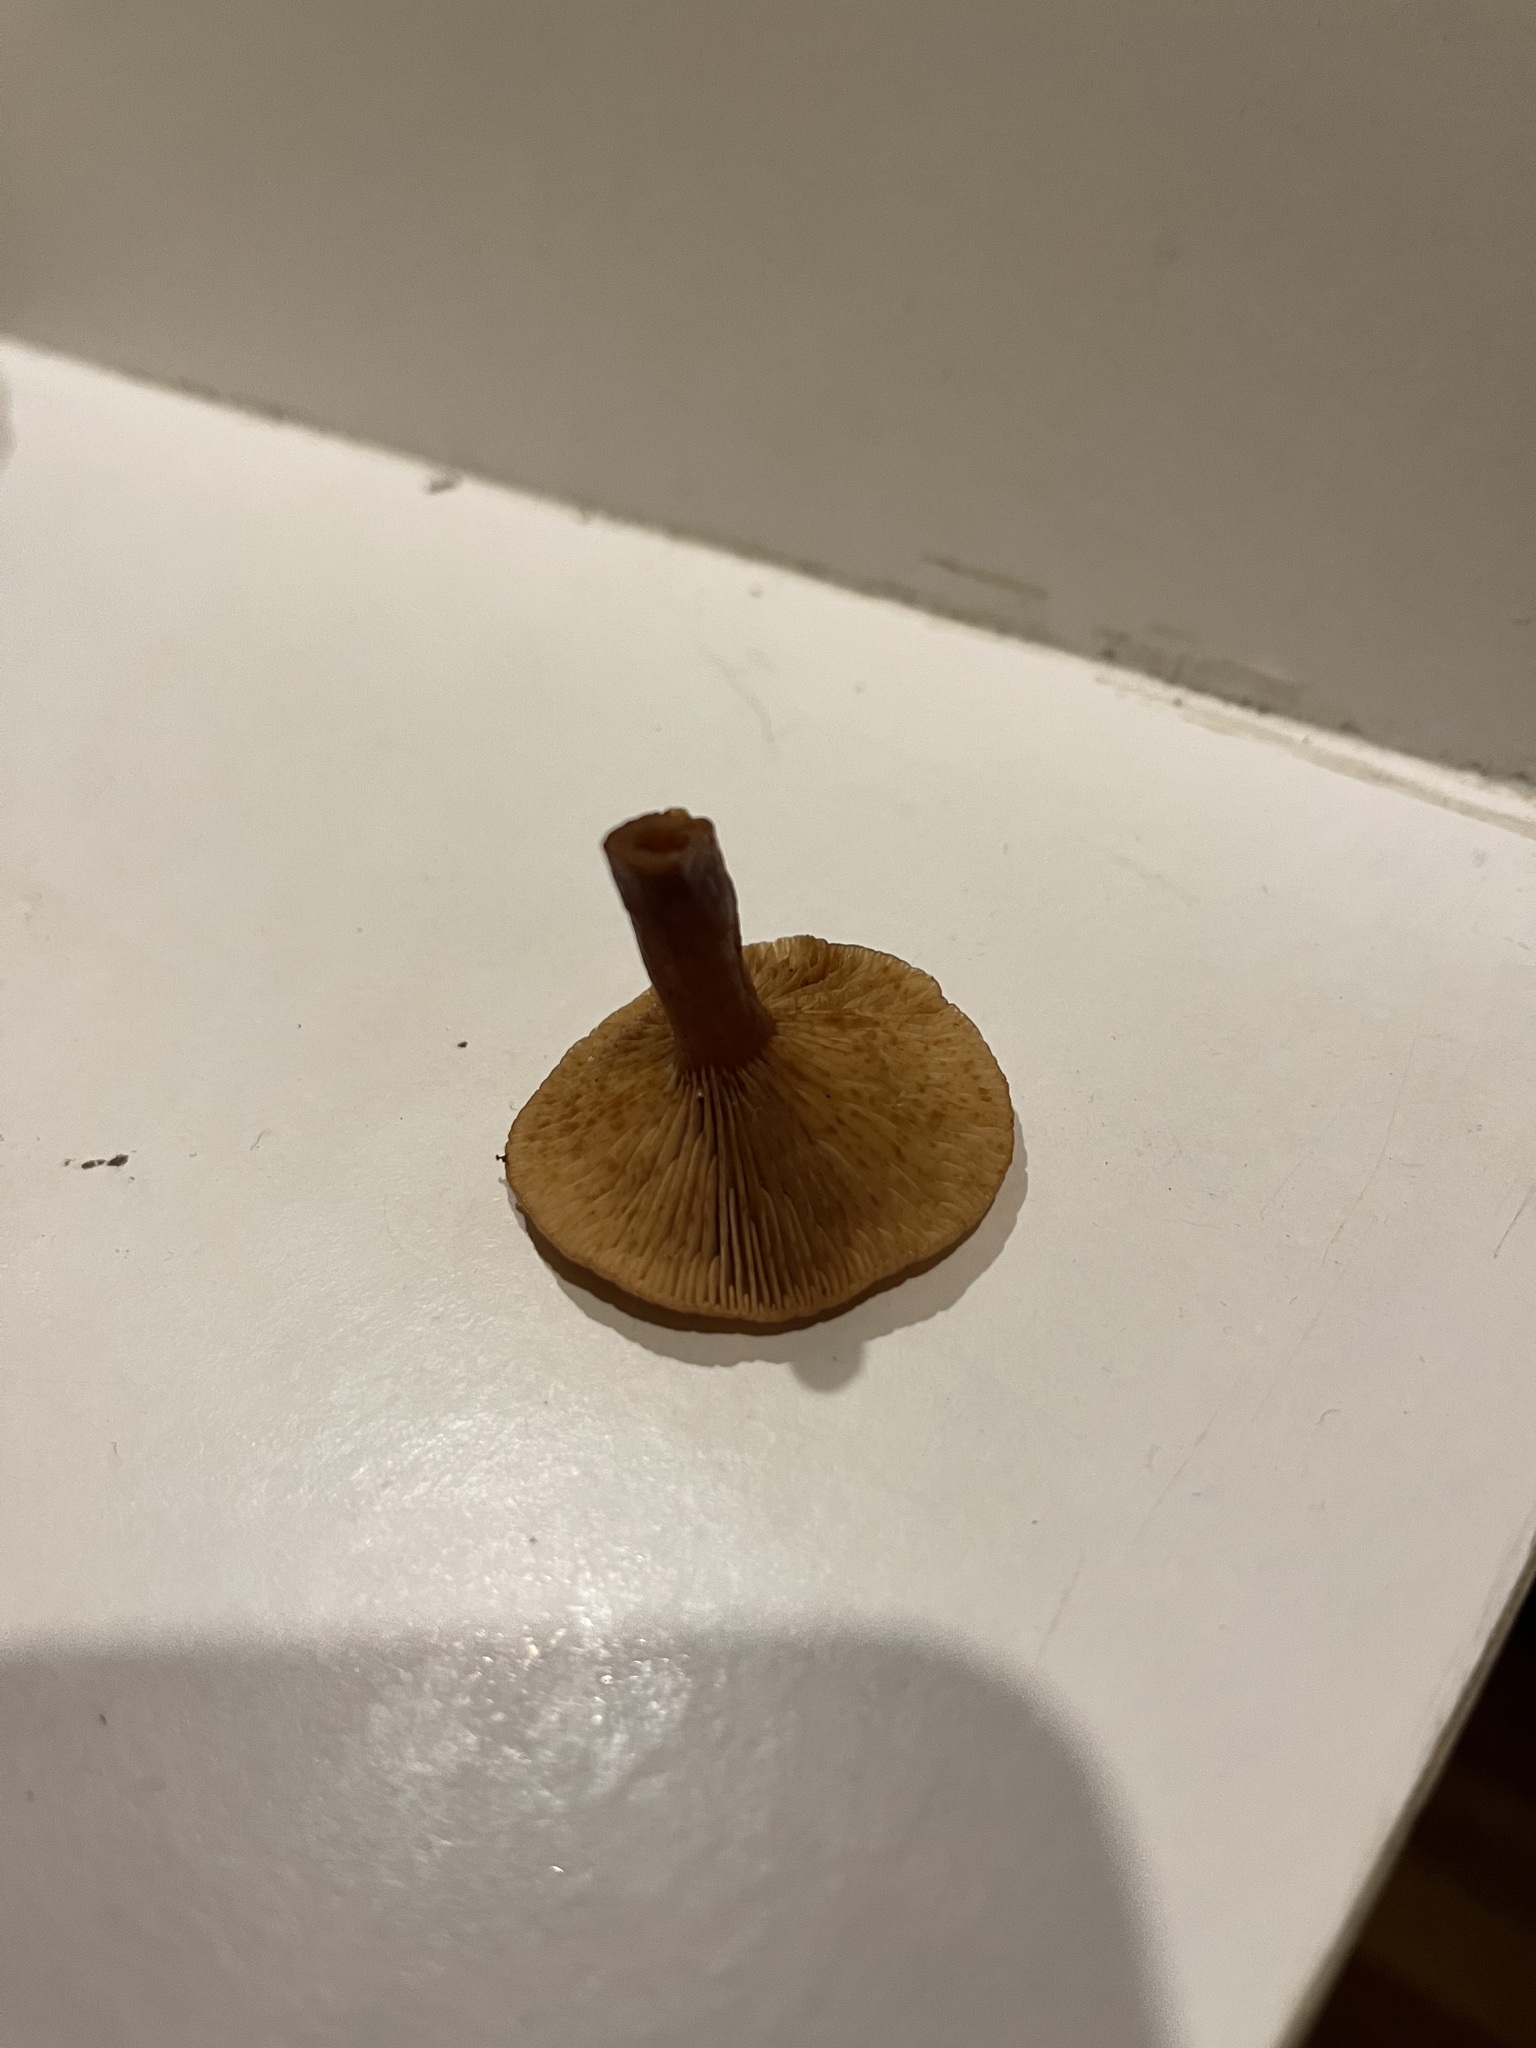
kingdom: Fungi
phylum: Basidiomycota
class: Agaricomycetes
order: Russulales
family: Russulaceae
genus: Lactarius
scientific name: Lactarius eucalypti
